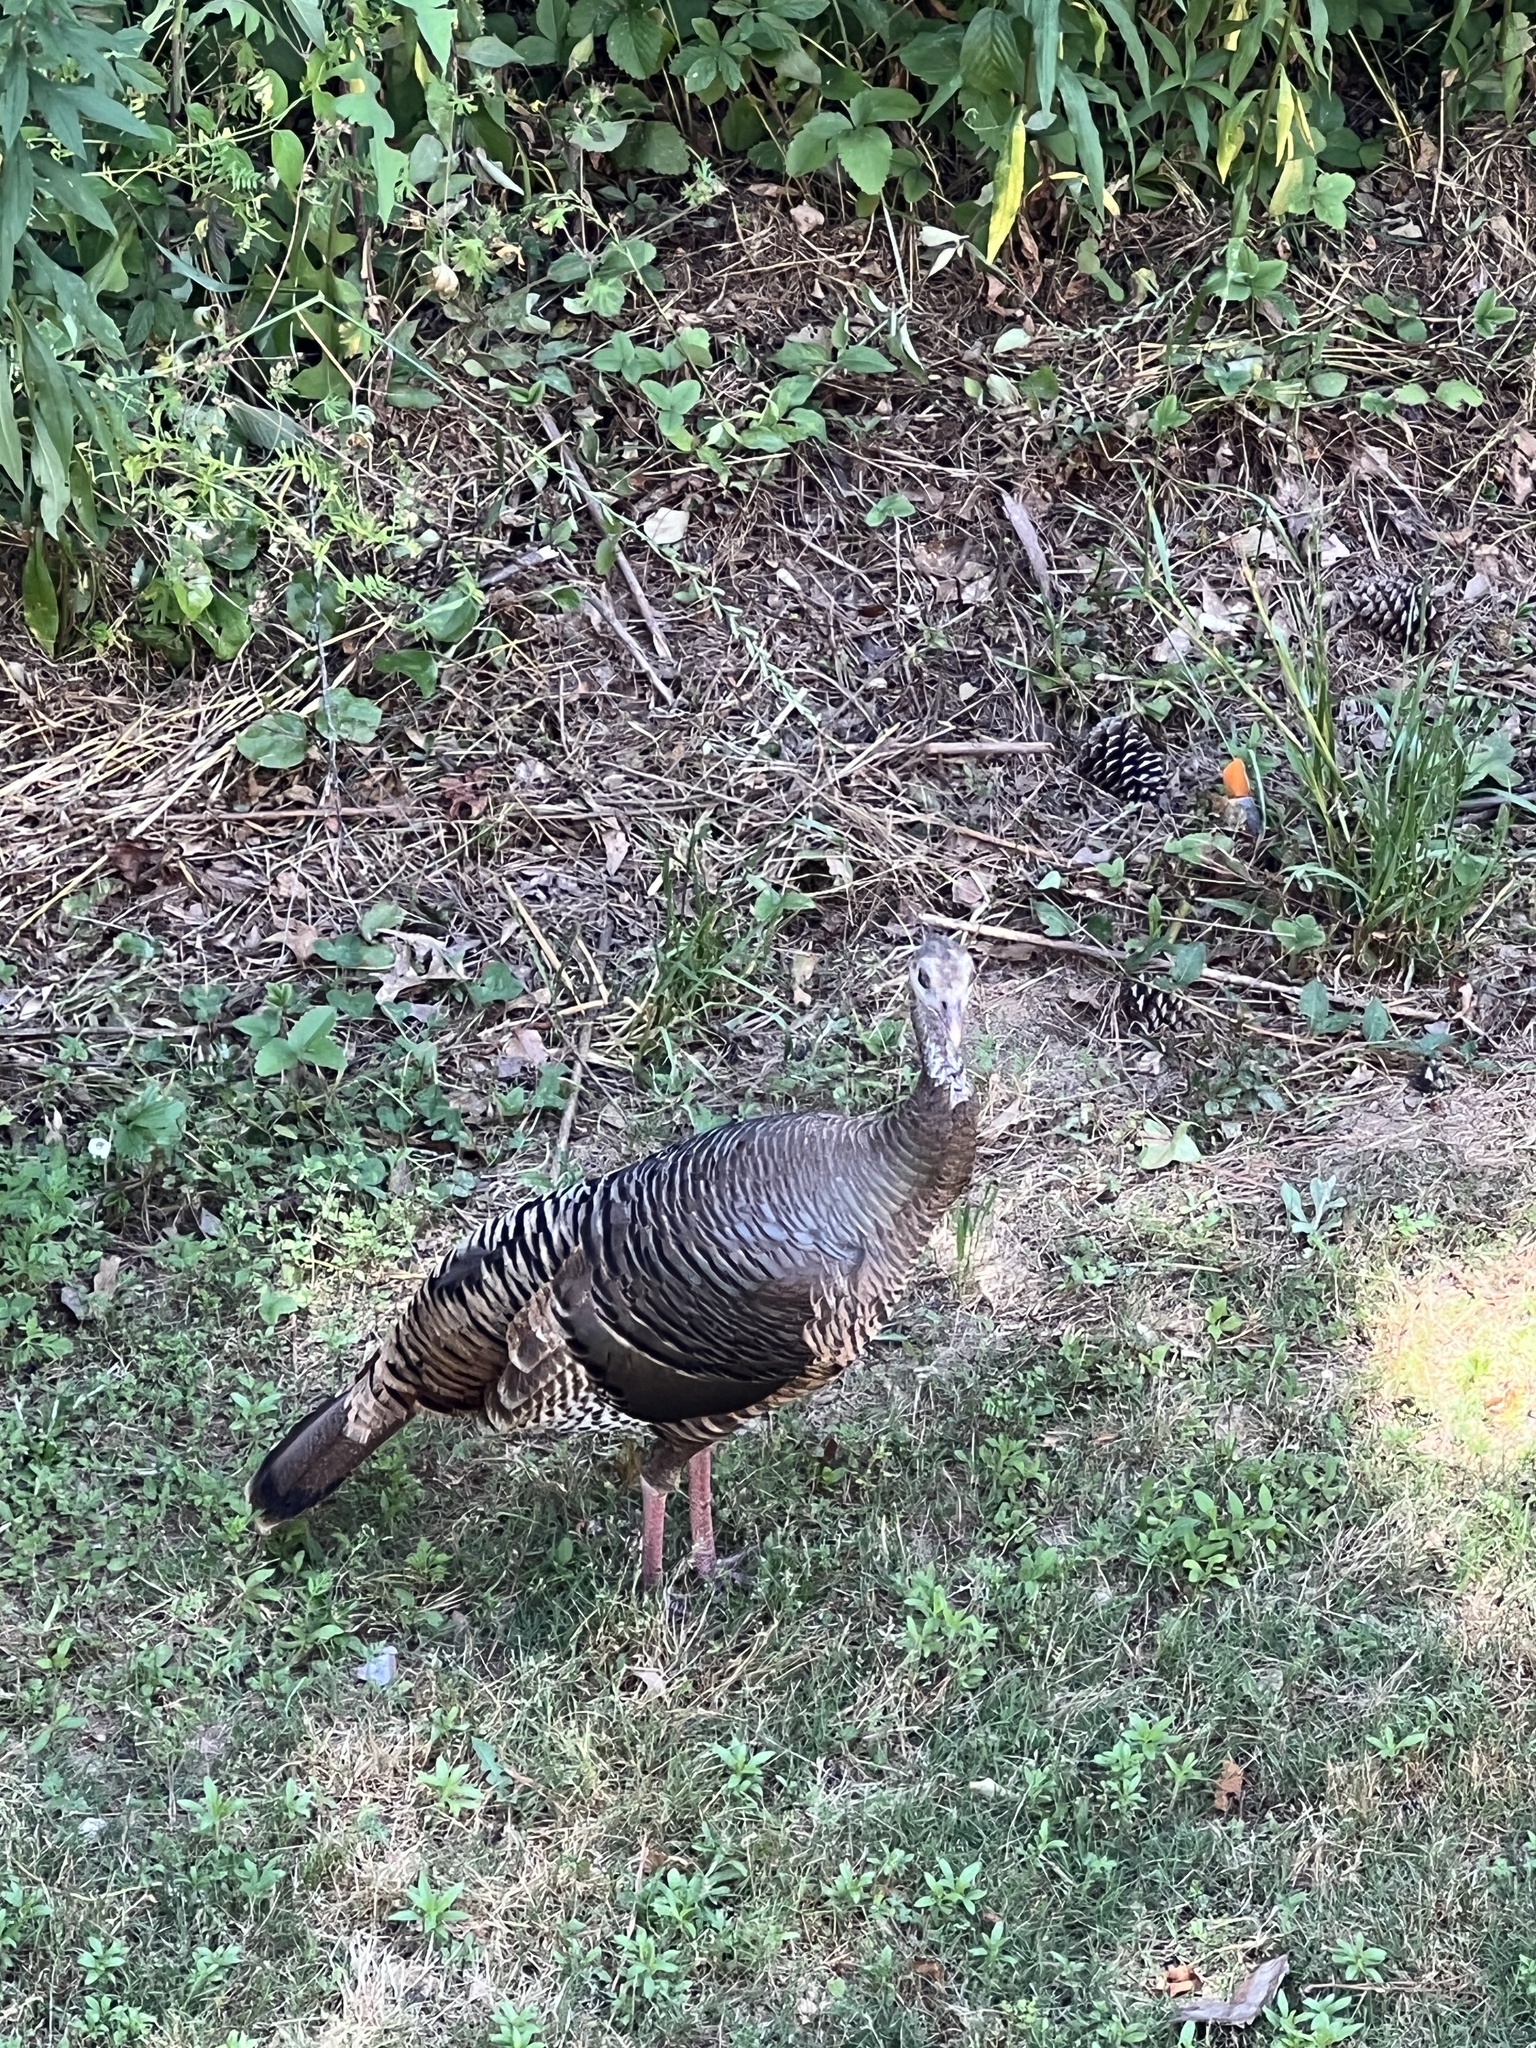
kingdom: Animalia
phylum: Chordata
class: Aves
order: Galliformes
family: Phasianidae
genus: Meleagris
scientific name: Meleagris gallopavo
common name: Wild turkey
